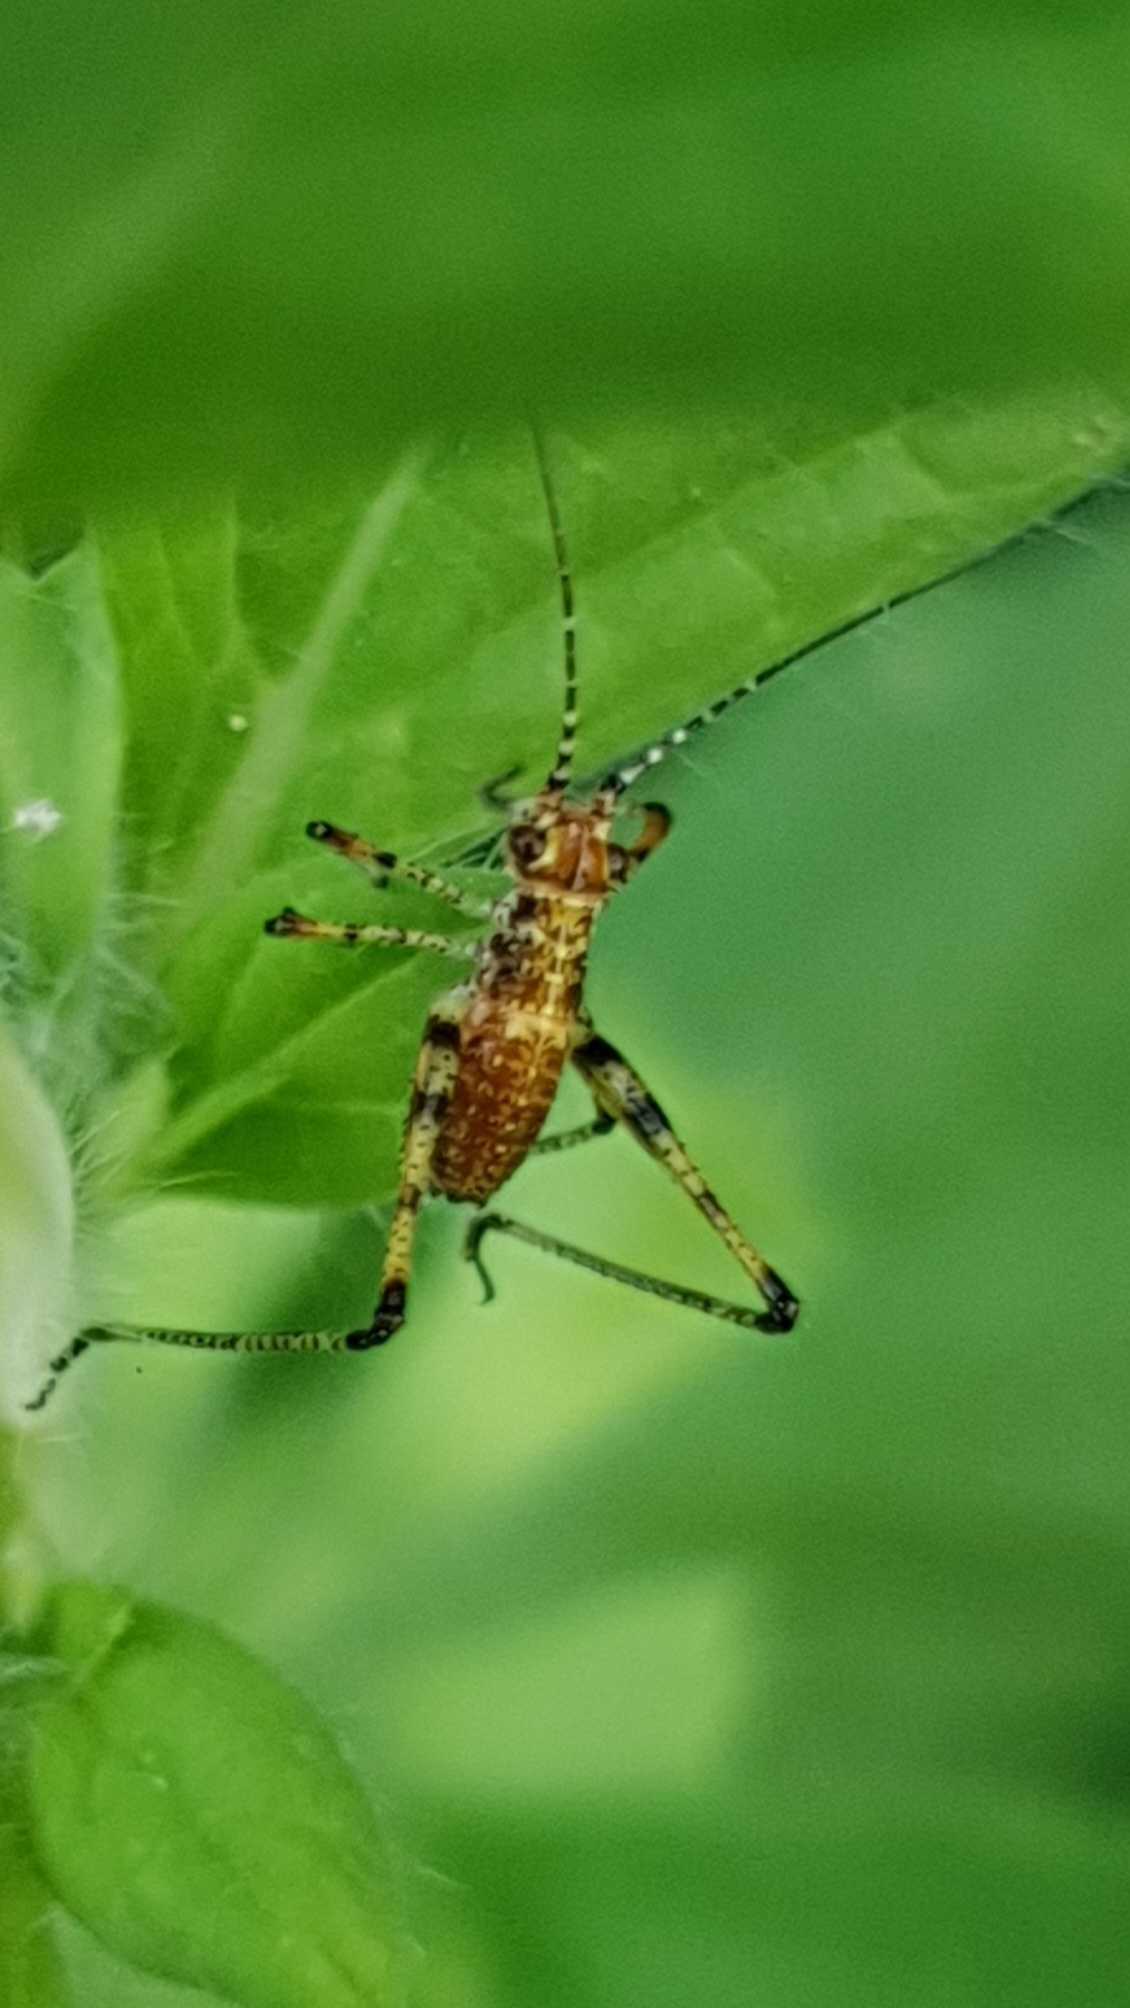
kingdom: Animalia
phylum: Arthropoda
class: Insecta
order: Orthoptera
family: Tettigoniidae
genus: Phaneroptera
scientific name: Phaneroptera nana
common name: Southern sickle bush-cricket
